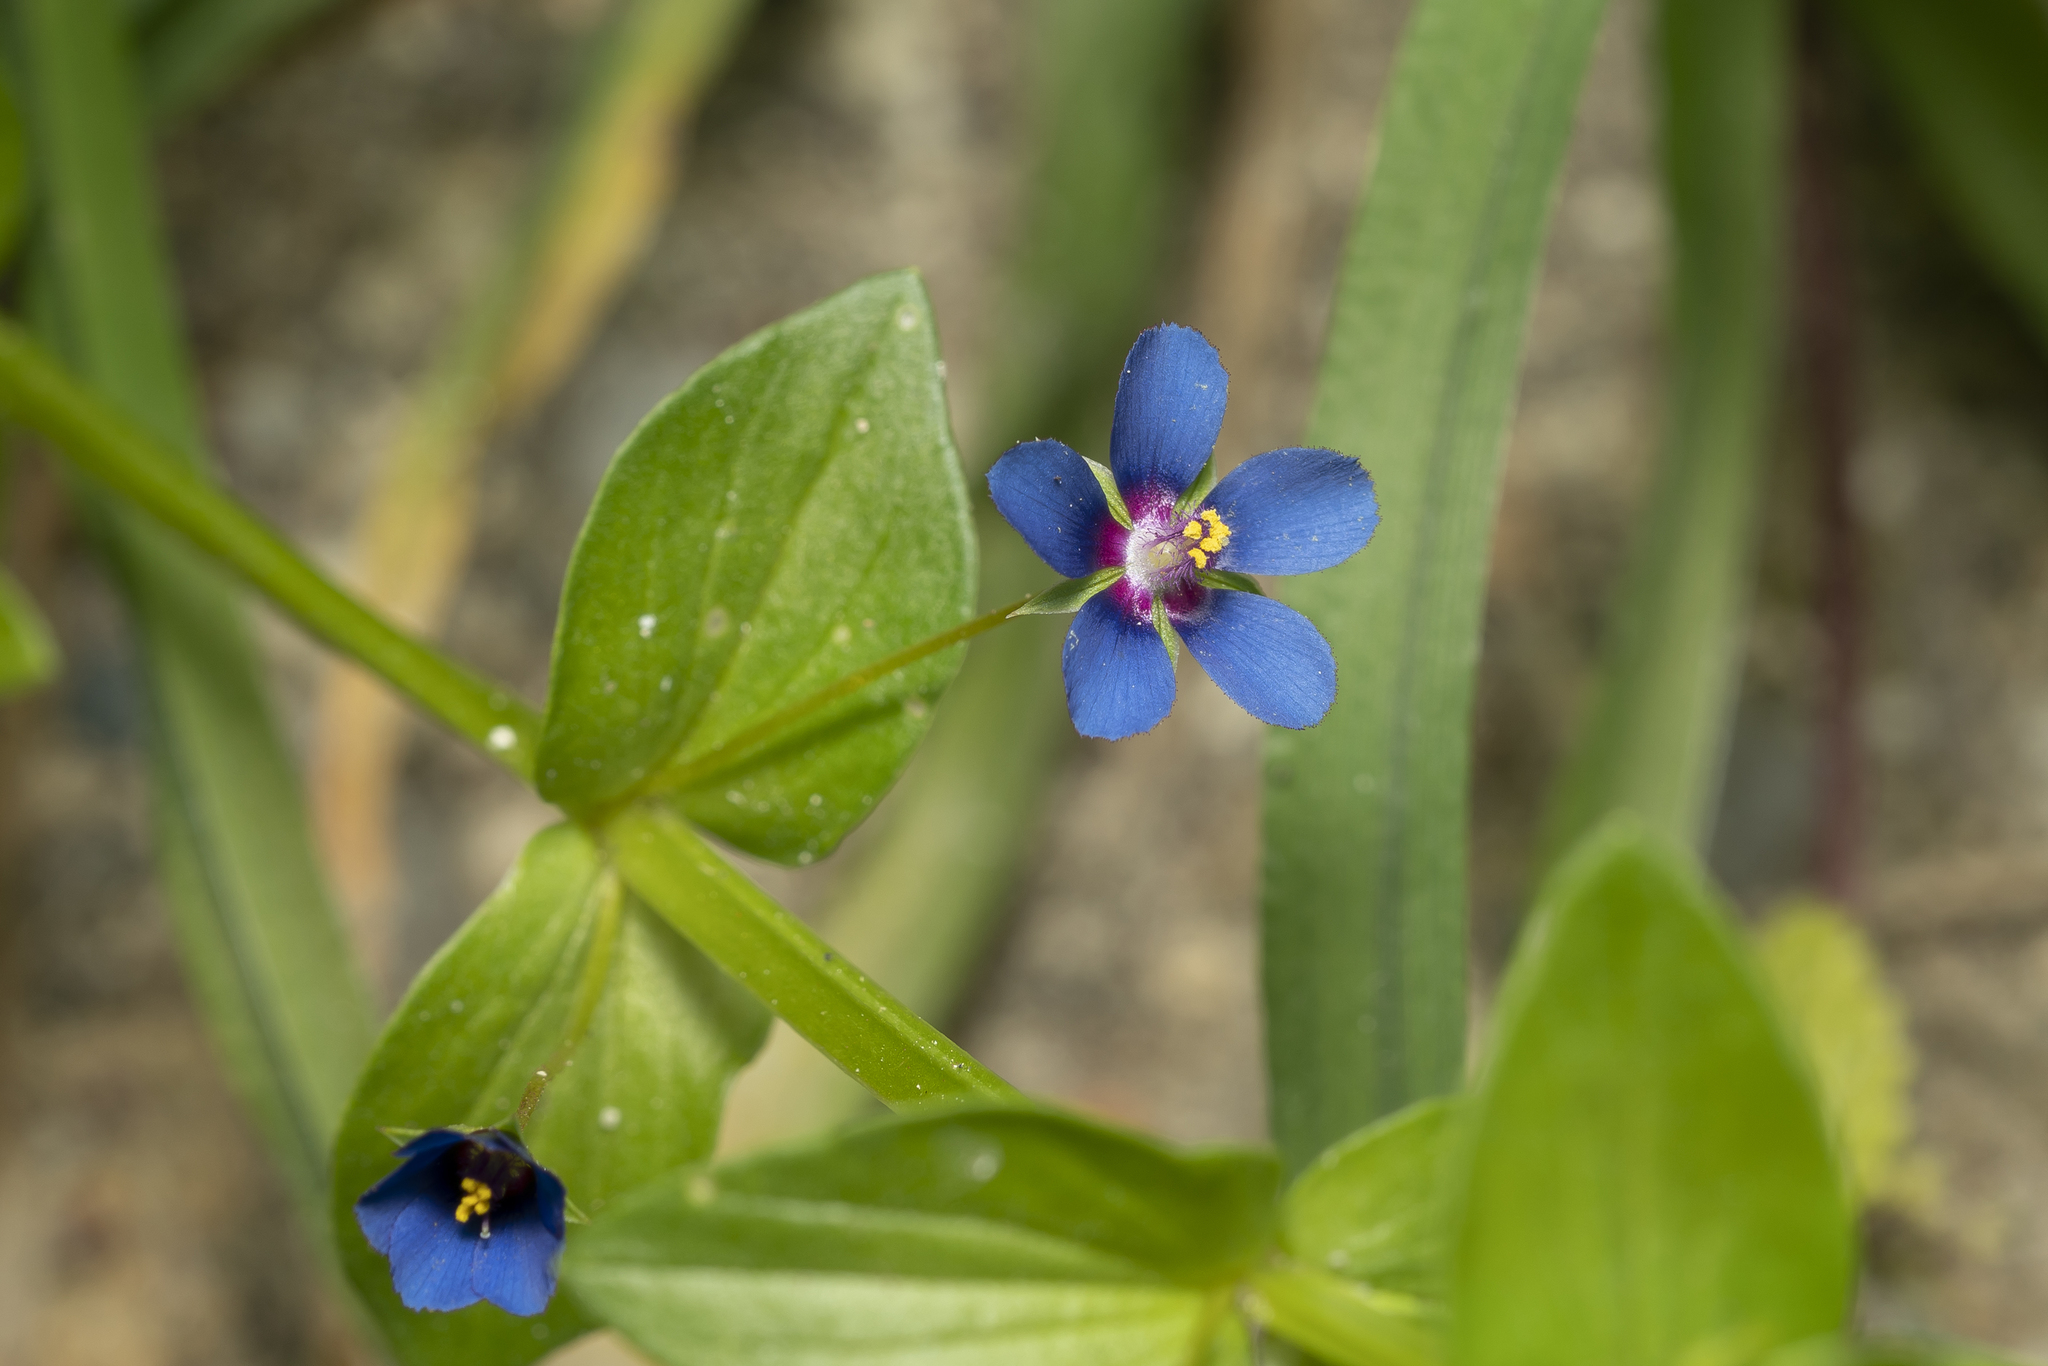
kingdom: Plantae
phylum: Tracheophyta
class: Magnoliopsida
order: Ericales
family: Primulaceae
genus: Lysimachia
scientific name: Lysimachia loeflingii
